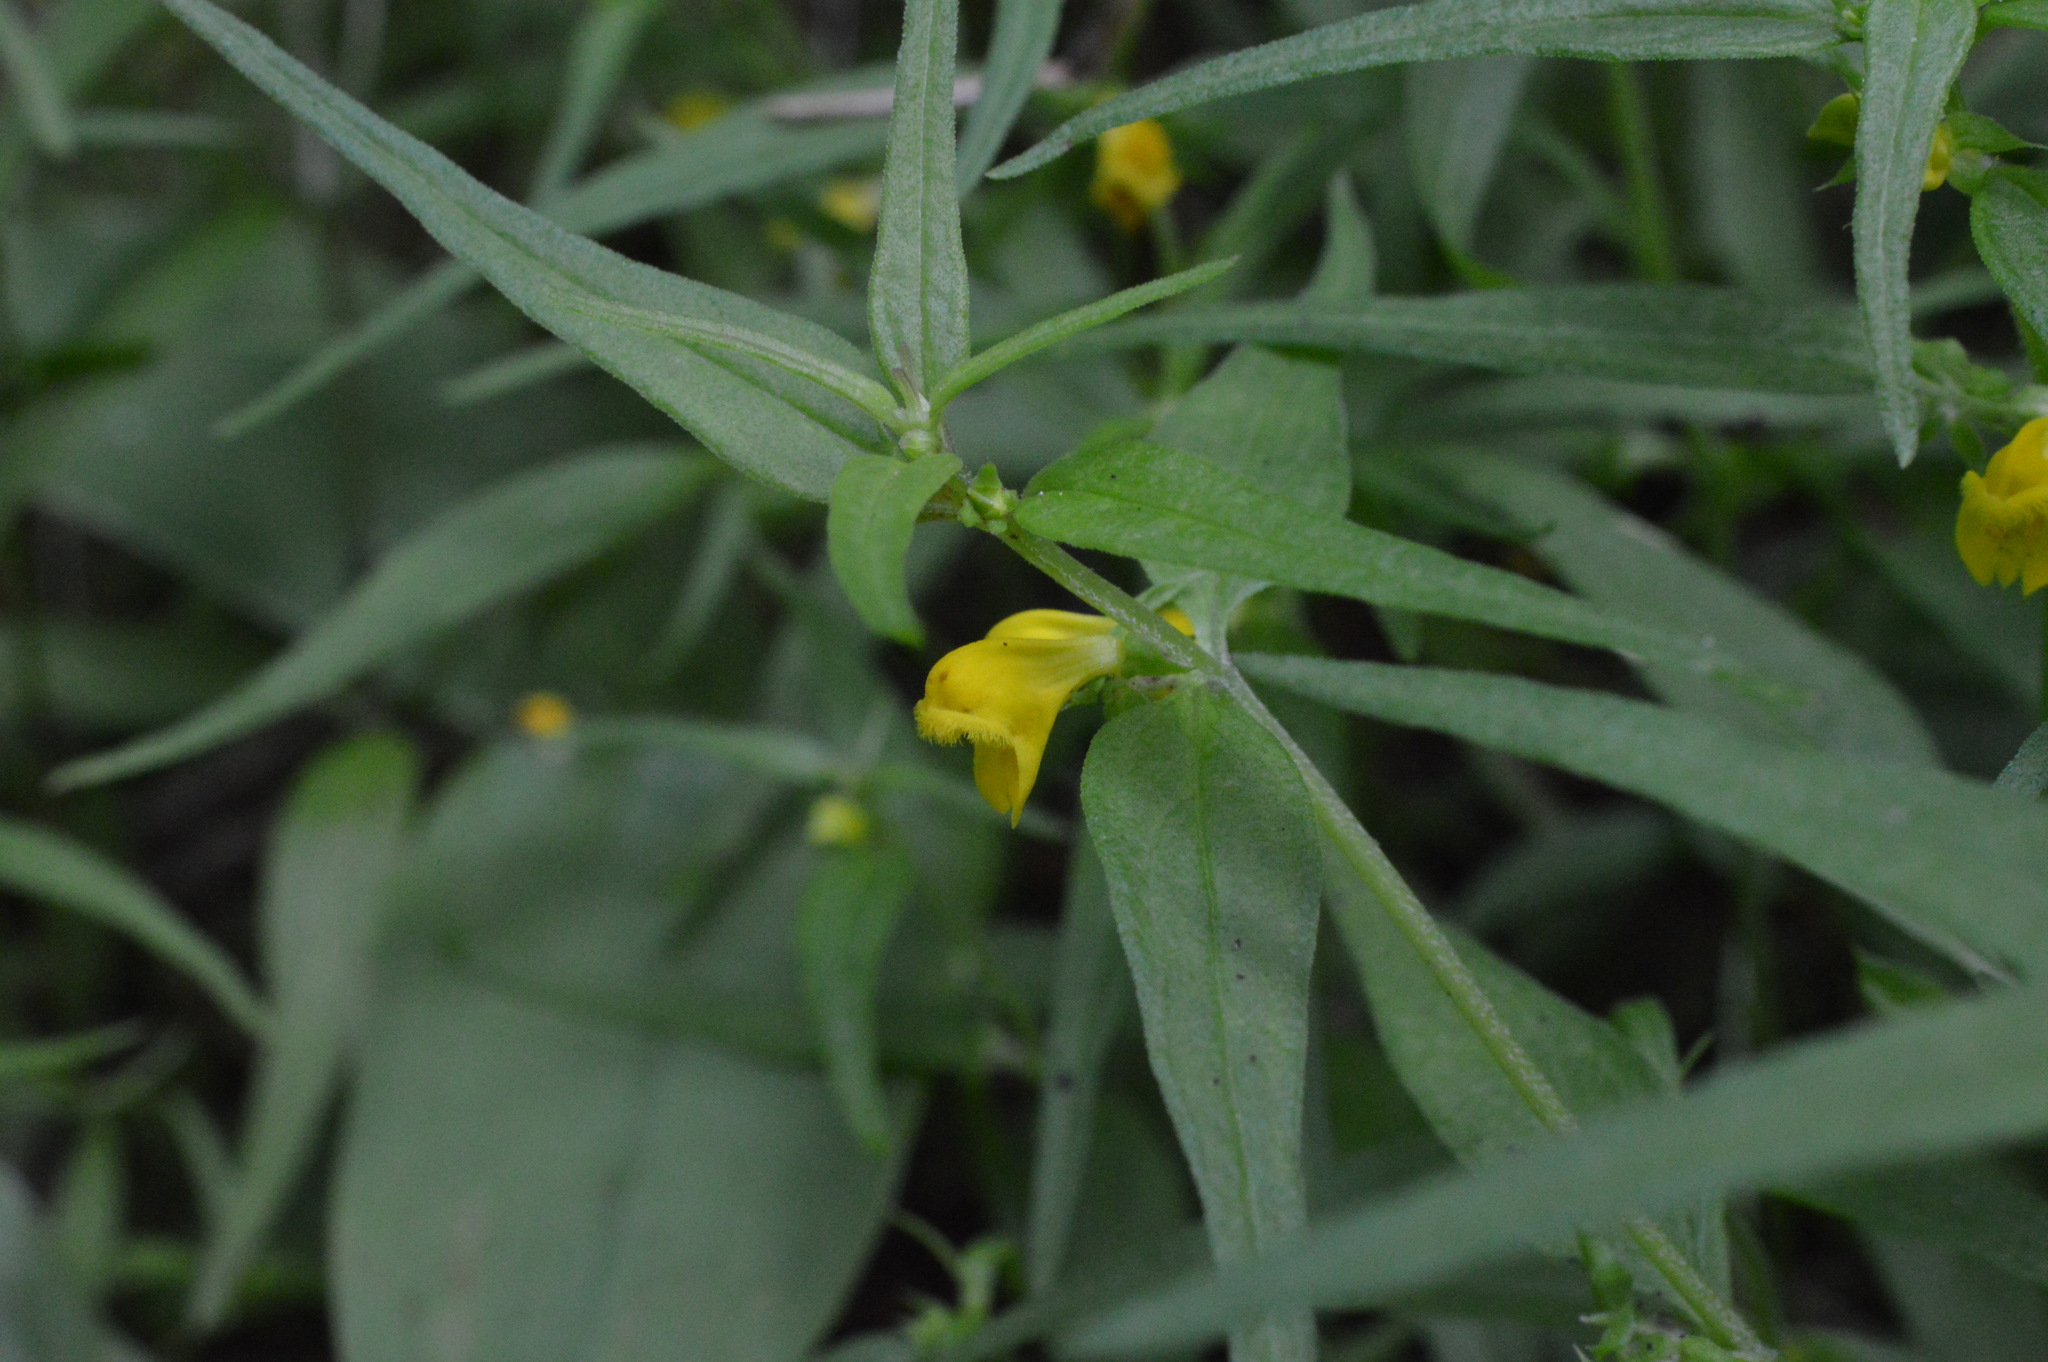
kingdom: Plantae
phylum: Tracheophyta
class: Magnoliopsida
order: Lamiales
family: Orobanchaceae
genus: Melampyrum
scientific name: Melampyrum sylvaticum
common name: Small cow-wheat
